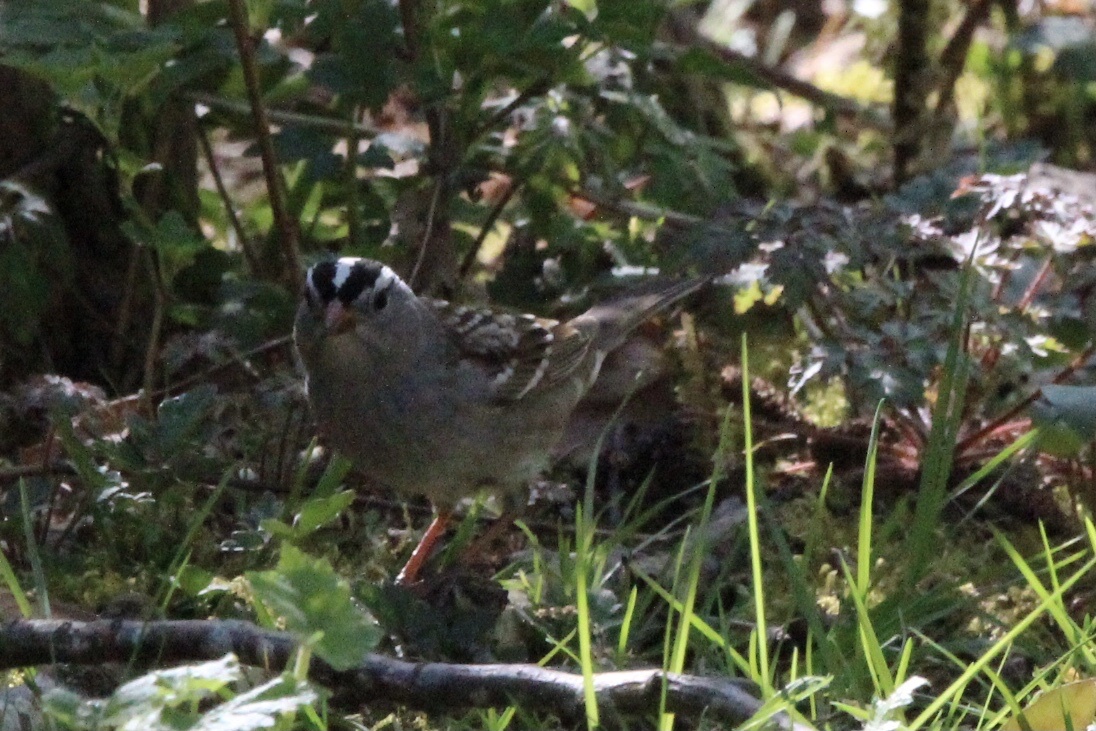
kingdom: Animalia
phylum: Chordata
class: Aves
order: Passeriformes
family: Passerellidae
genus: Zonotrichia
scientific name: Zonotrichia leucophrys
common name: White-crowned sparrow
